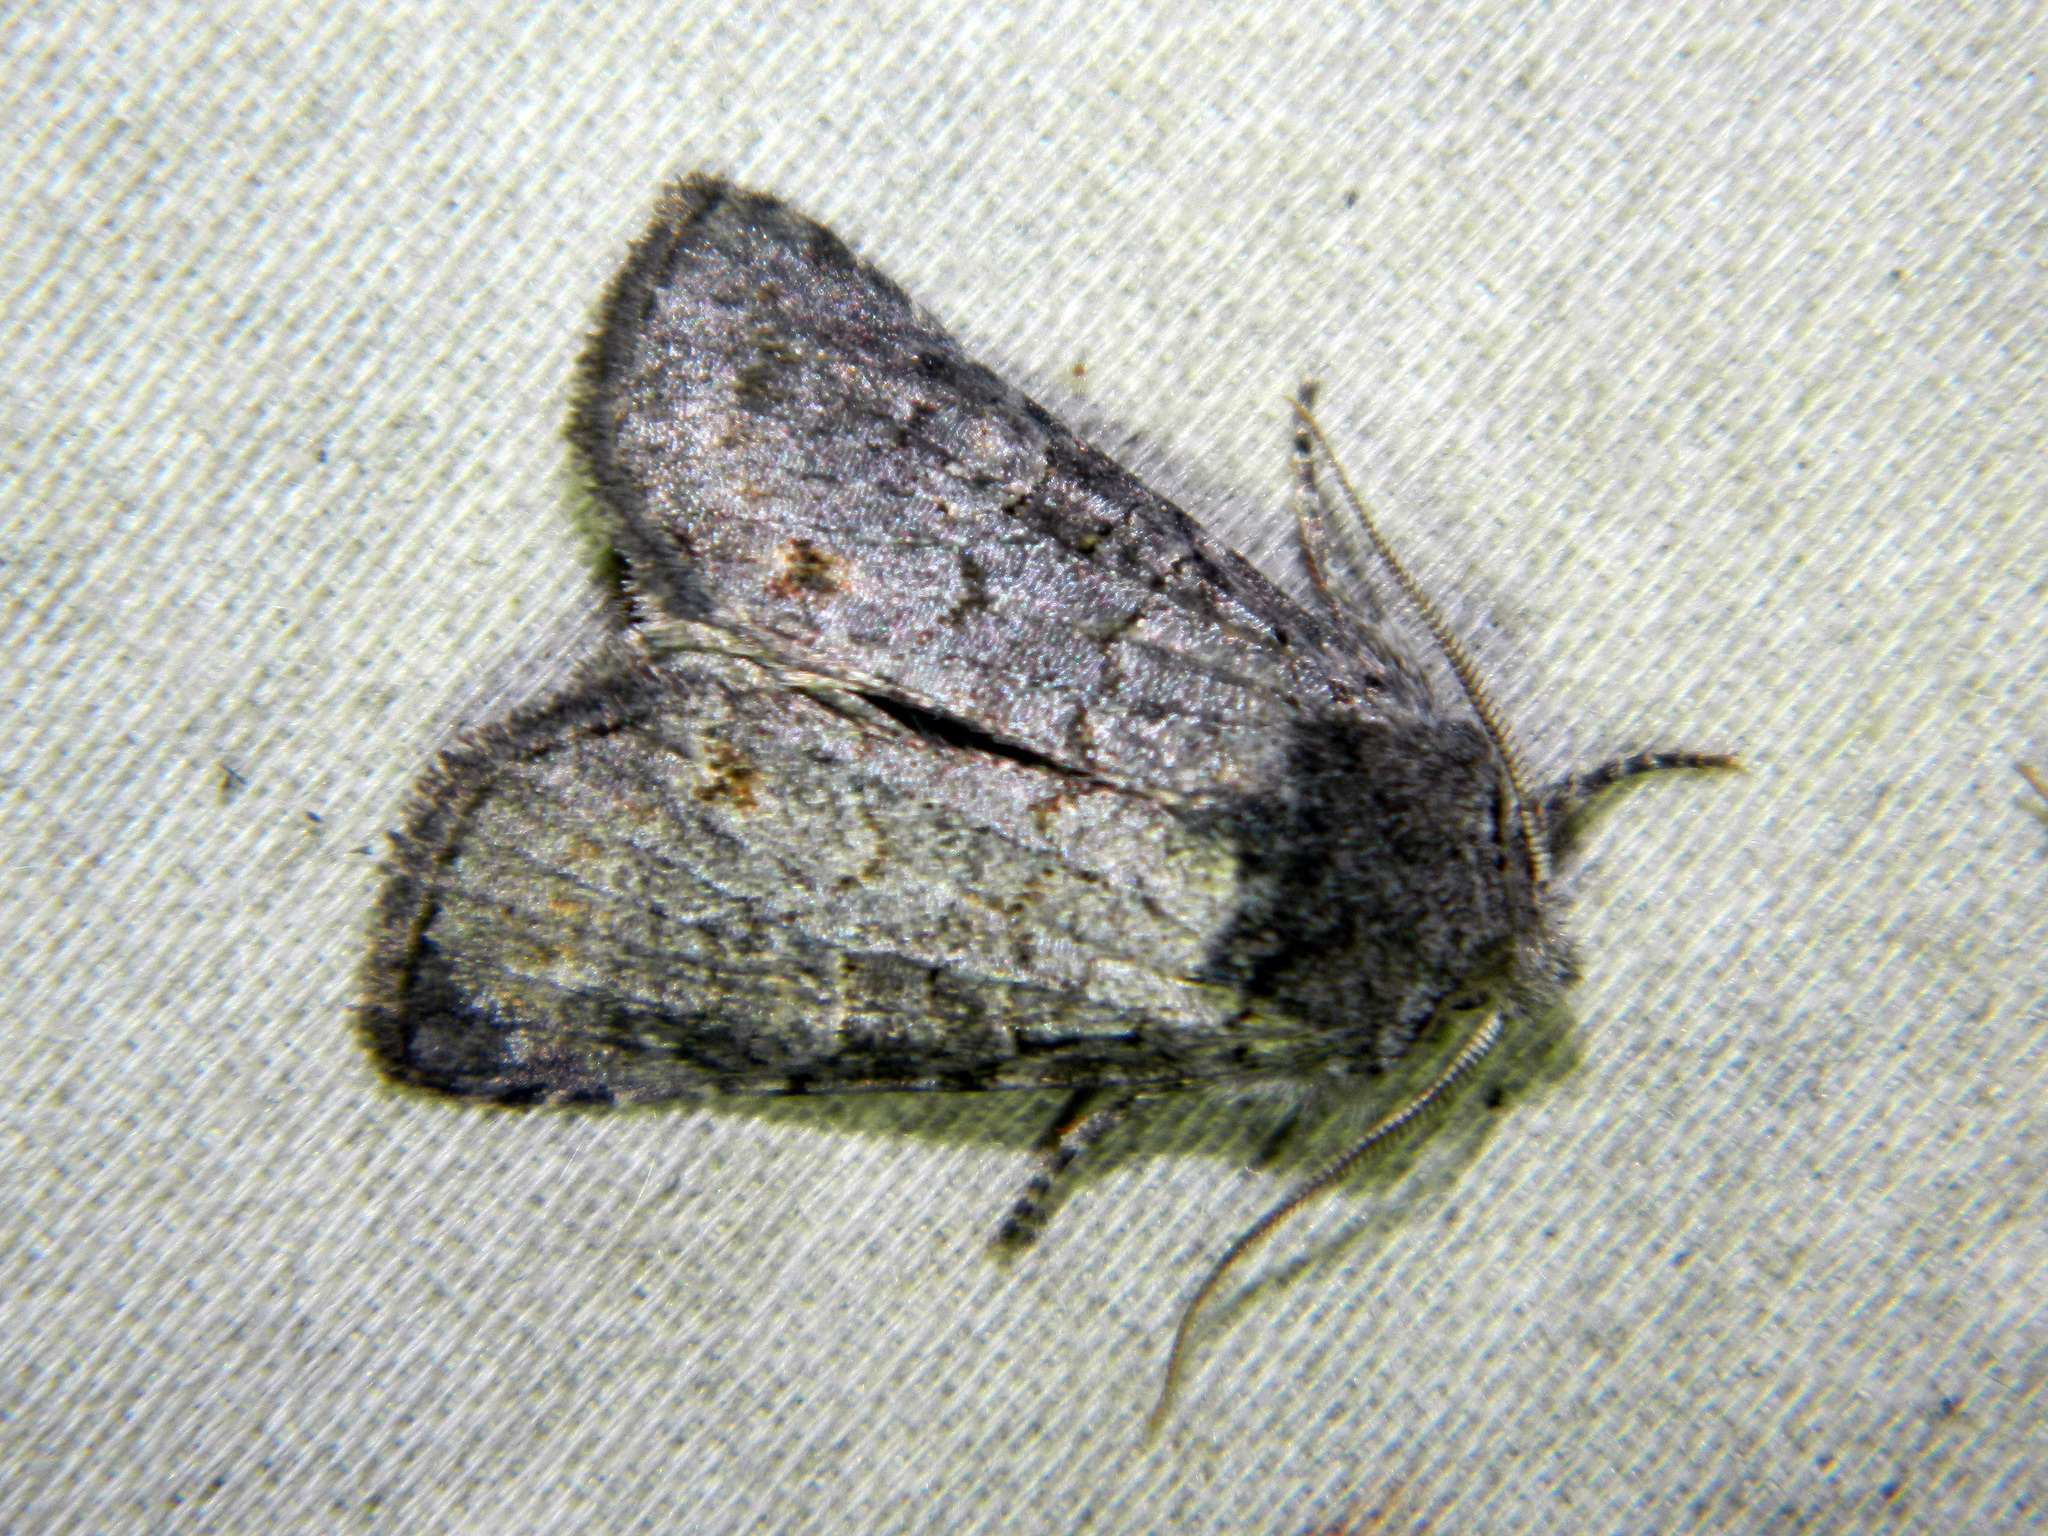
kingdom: Animalia
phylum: Arthropoda
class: Insecta
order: Lepidoptera
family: Noctuidae
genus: Brachylomia
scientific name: Brachylomia algens
